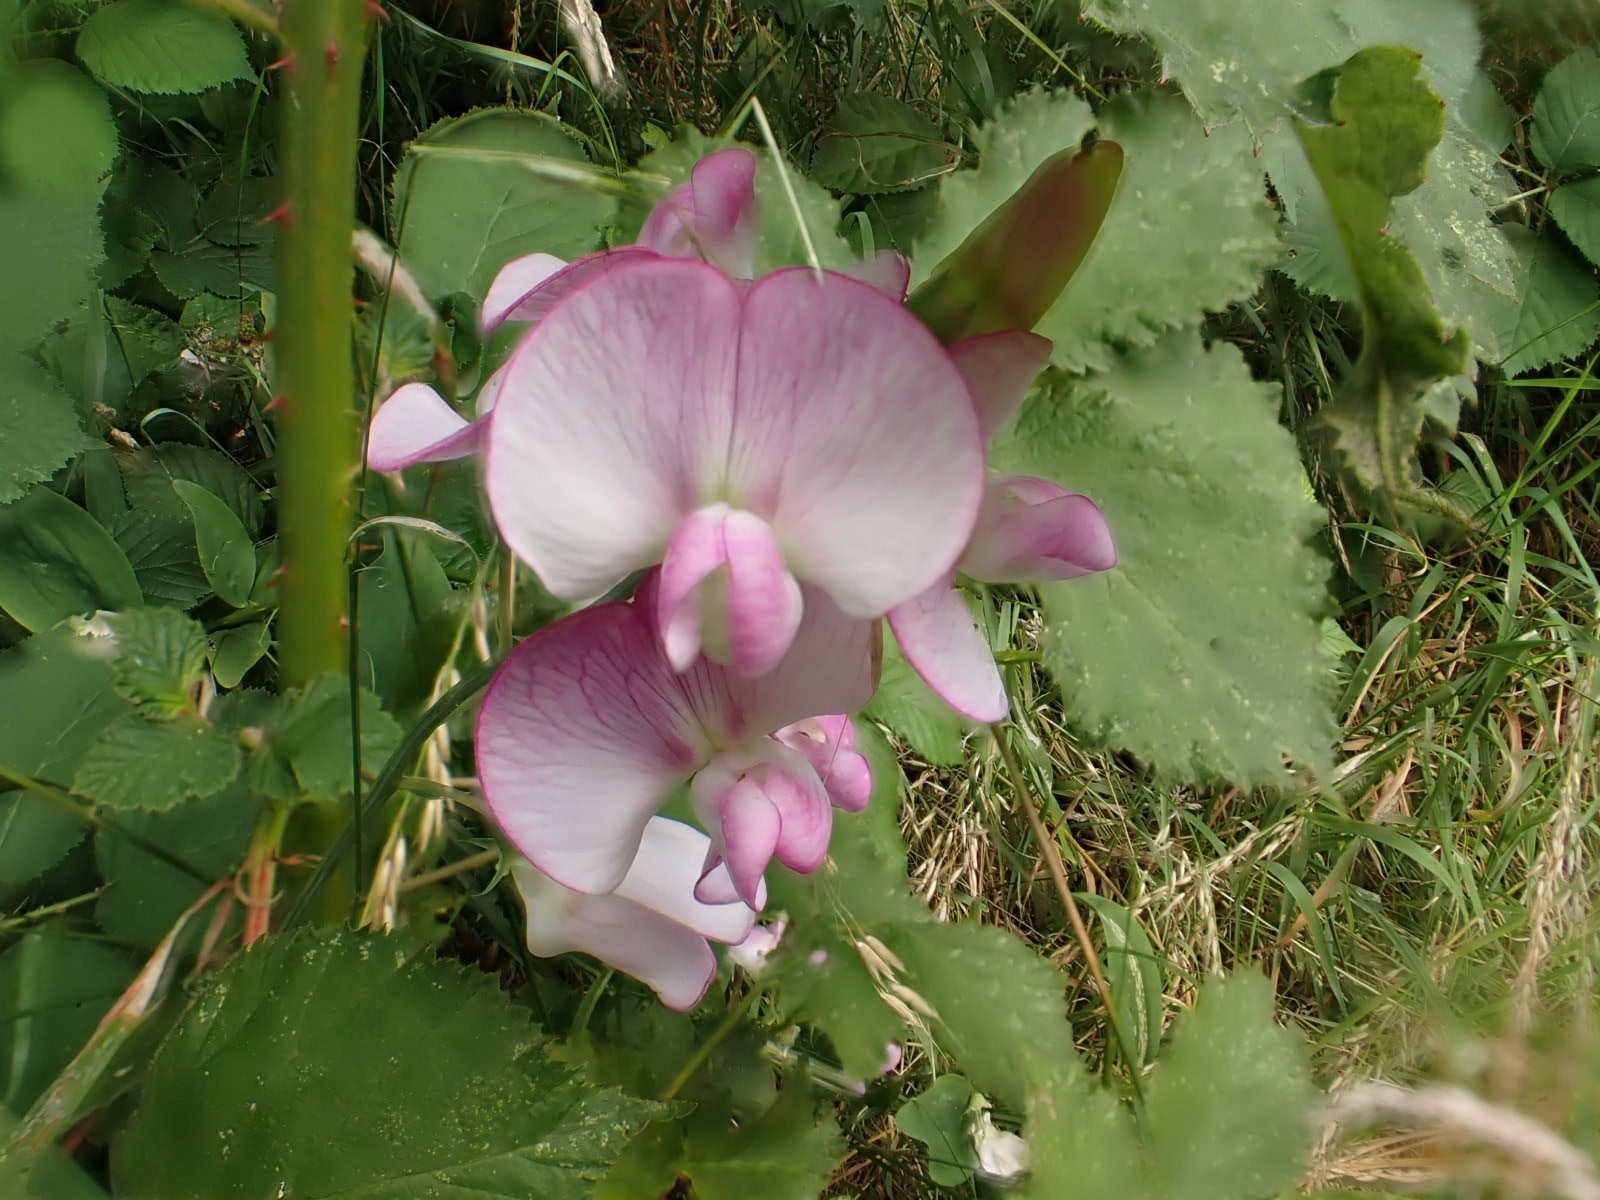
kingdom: Plantae
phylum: Tracheophyta
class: Magnoliopsida
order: Fabales
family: Fabaceae
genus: Lathyrus
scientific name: Lathyrus latifolius
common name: Perennial pea
